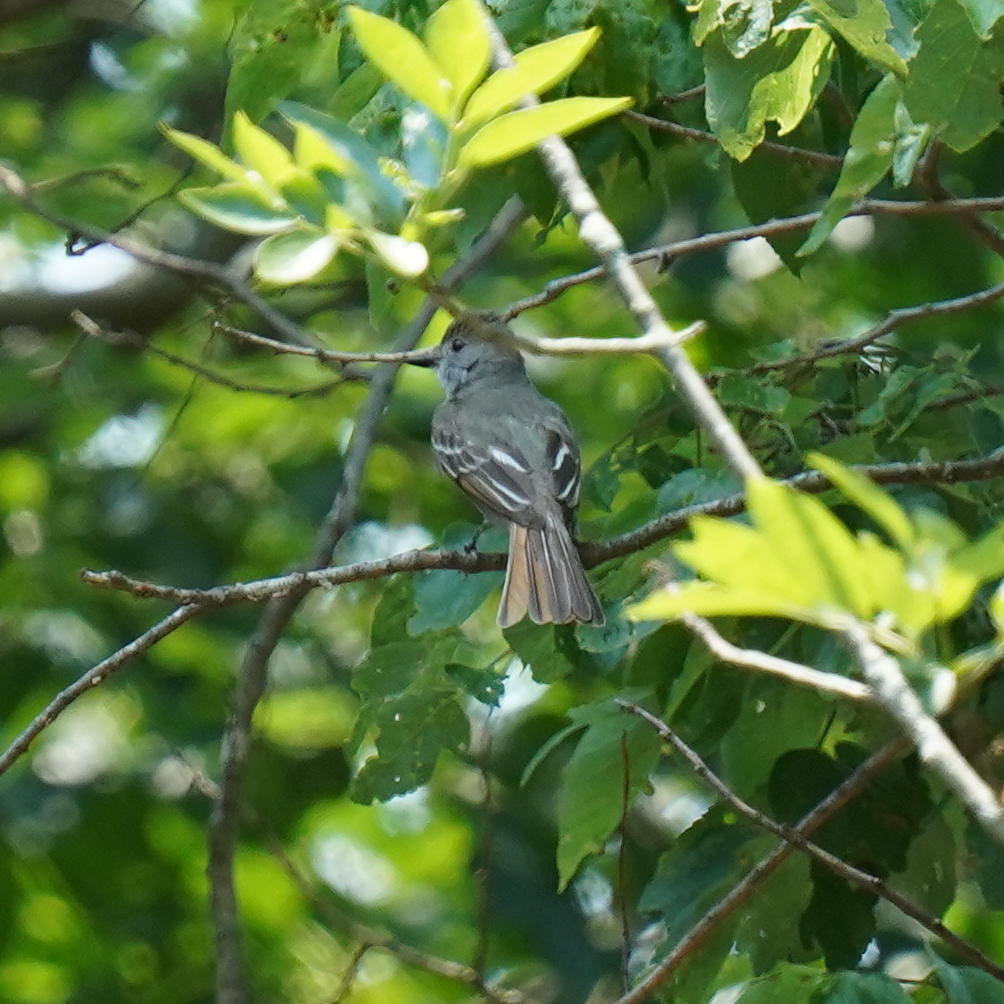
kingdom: Animalia
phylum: Chordata
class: Aves
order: Passeriformes
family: Tyrannidae
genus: Myiarchus
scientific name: Myiarchus crinitus
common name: Great crested flycatcher
